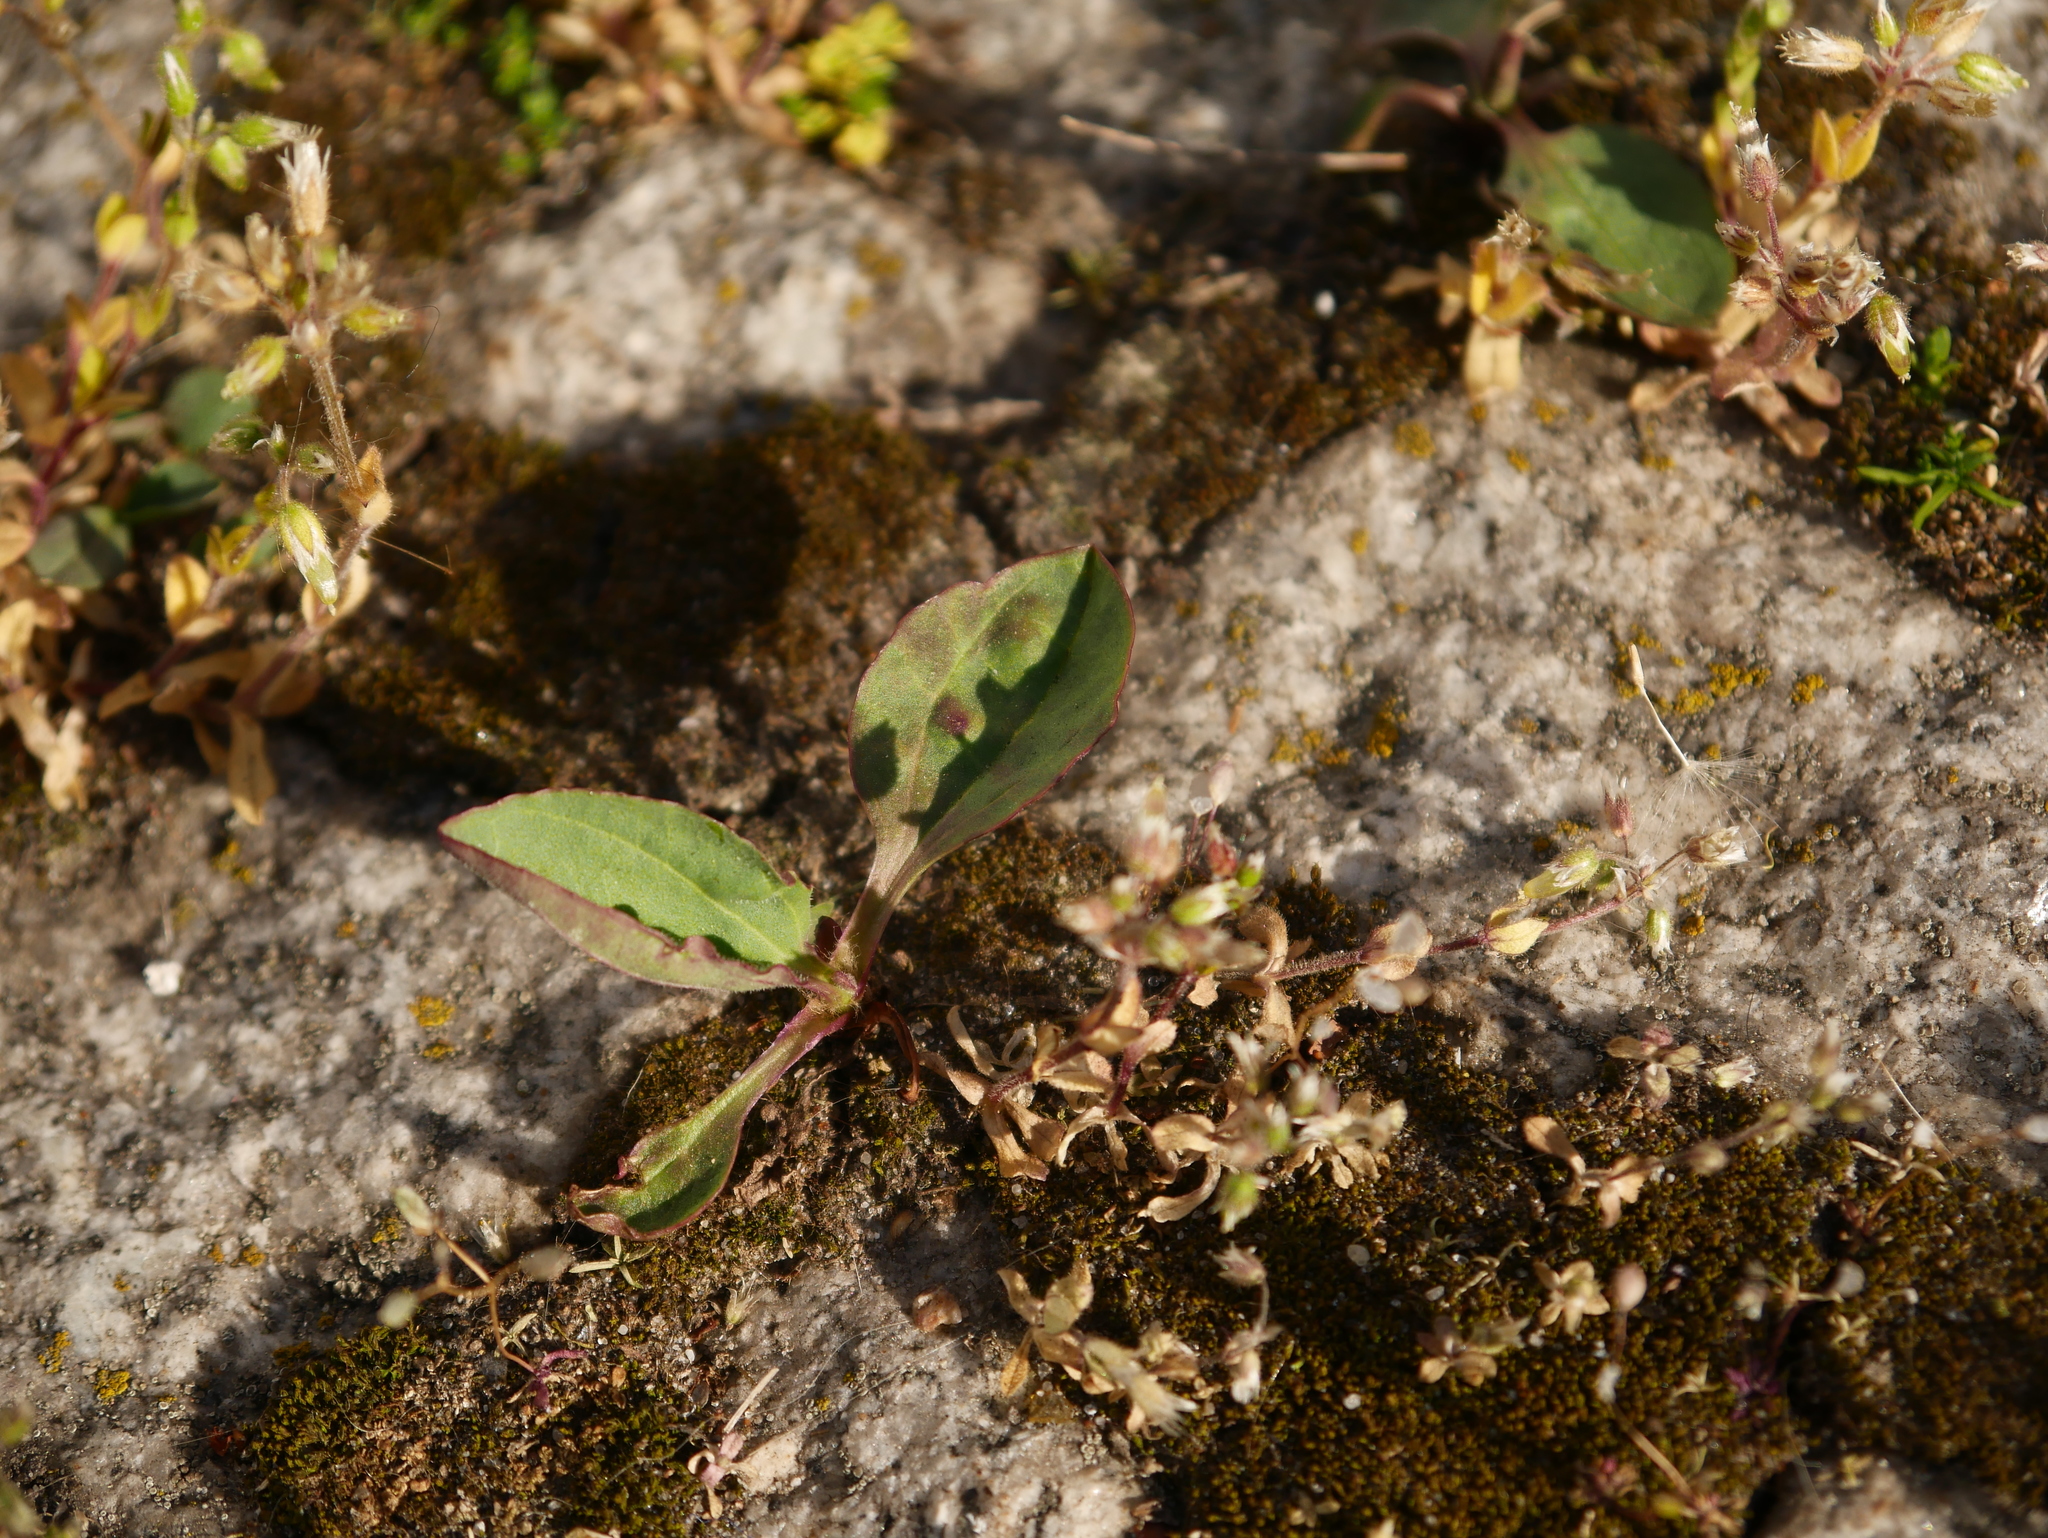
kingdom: Plantae
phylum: Tracheophyta
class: Magnoliopsida
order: Lamiales
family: Plantaginaceae
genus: Plantago
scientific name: Plantago major
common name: Common plantain
